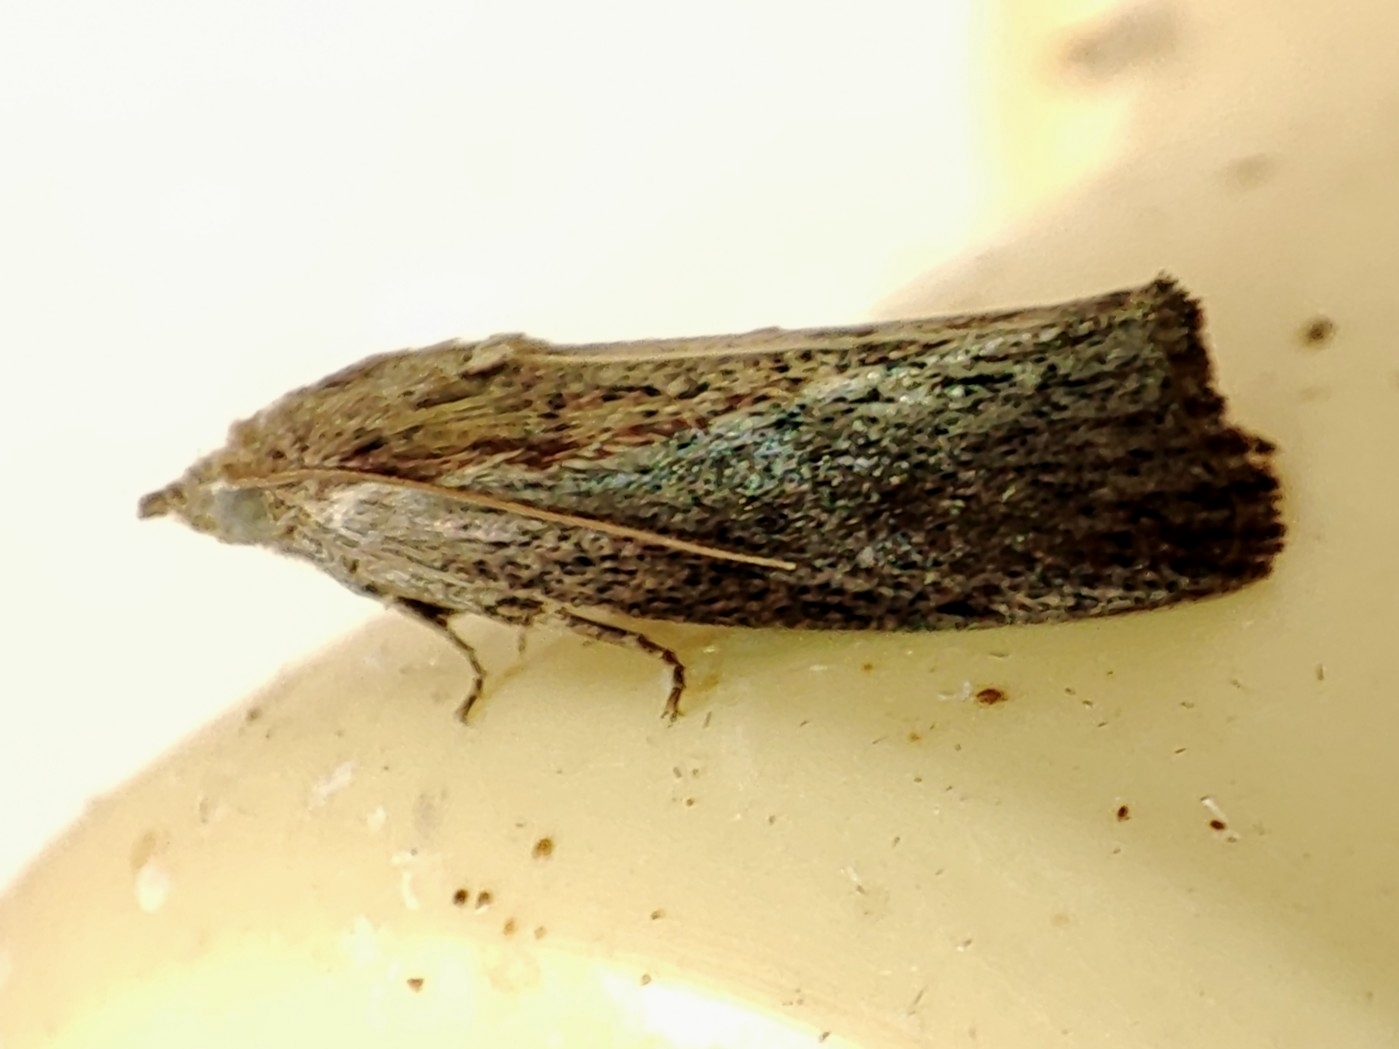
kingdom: Animalia
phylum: Arthropoda
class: Insecta
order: Lepidoptera
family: Pyralidae
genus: Galleria
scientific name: Galleria mellonella
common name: Greater wax moth
